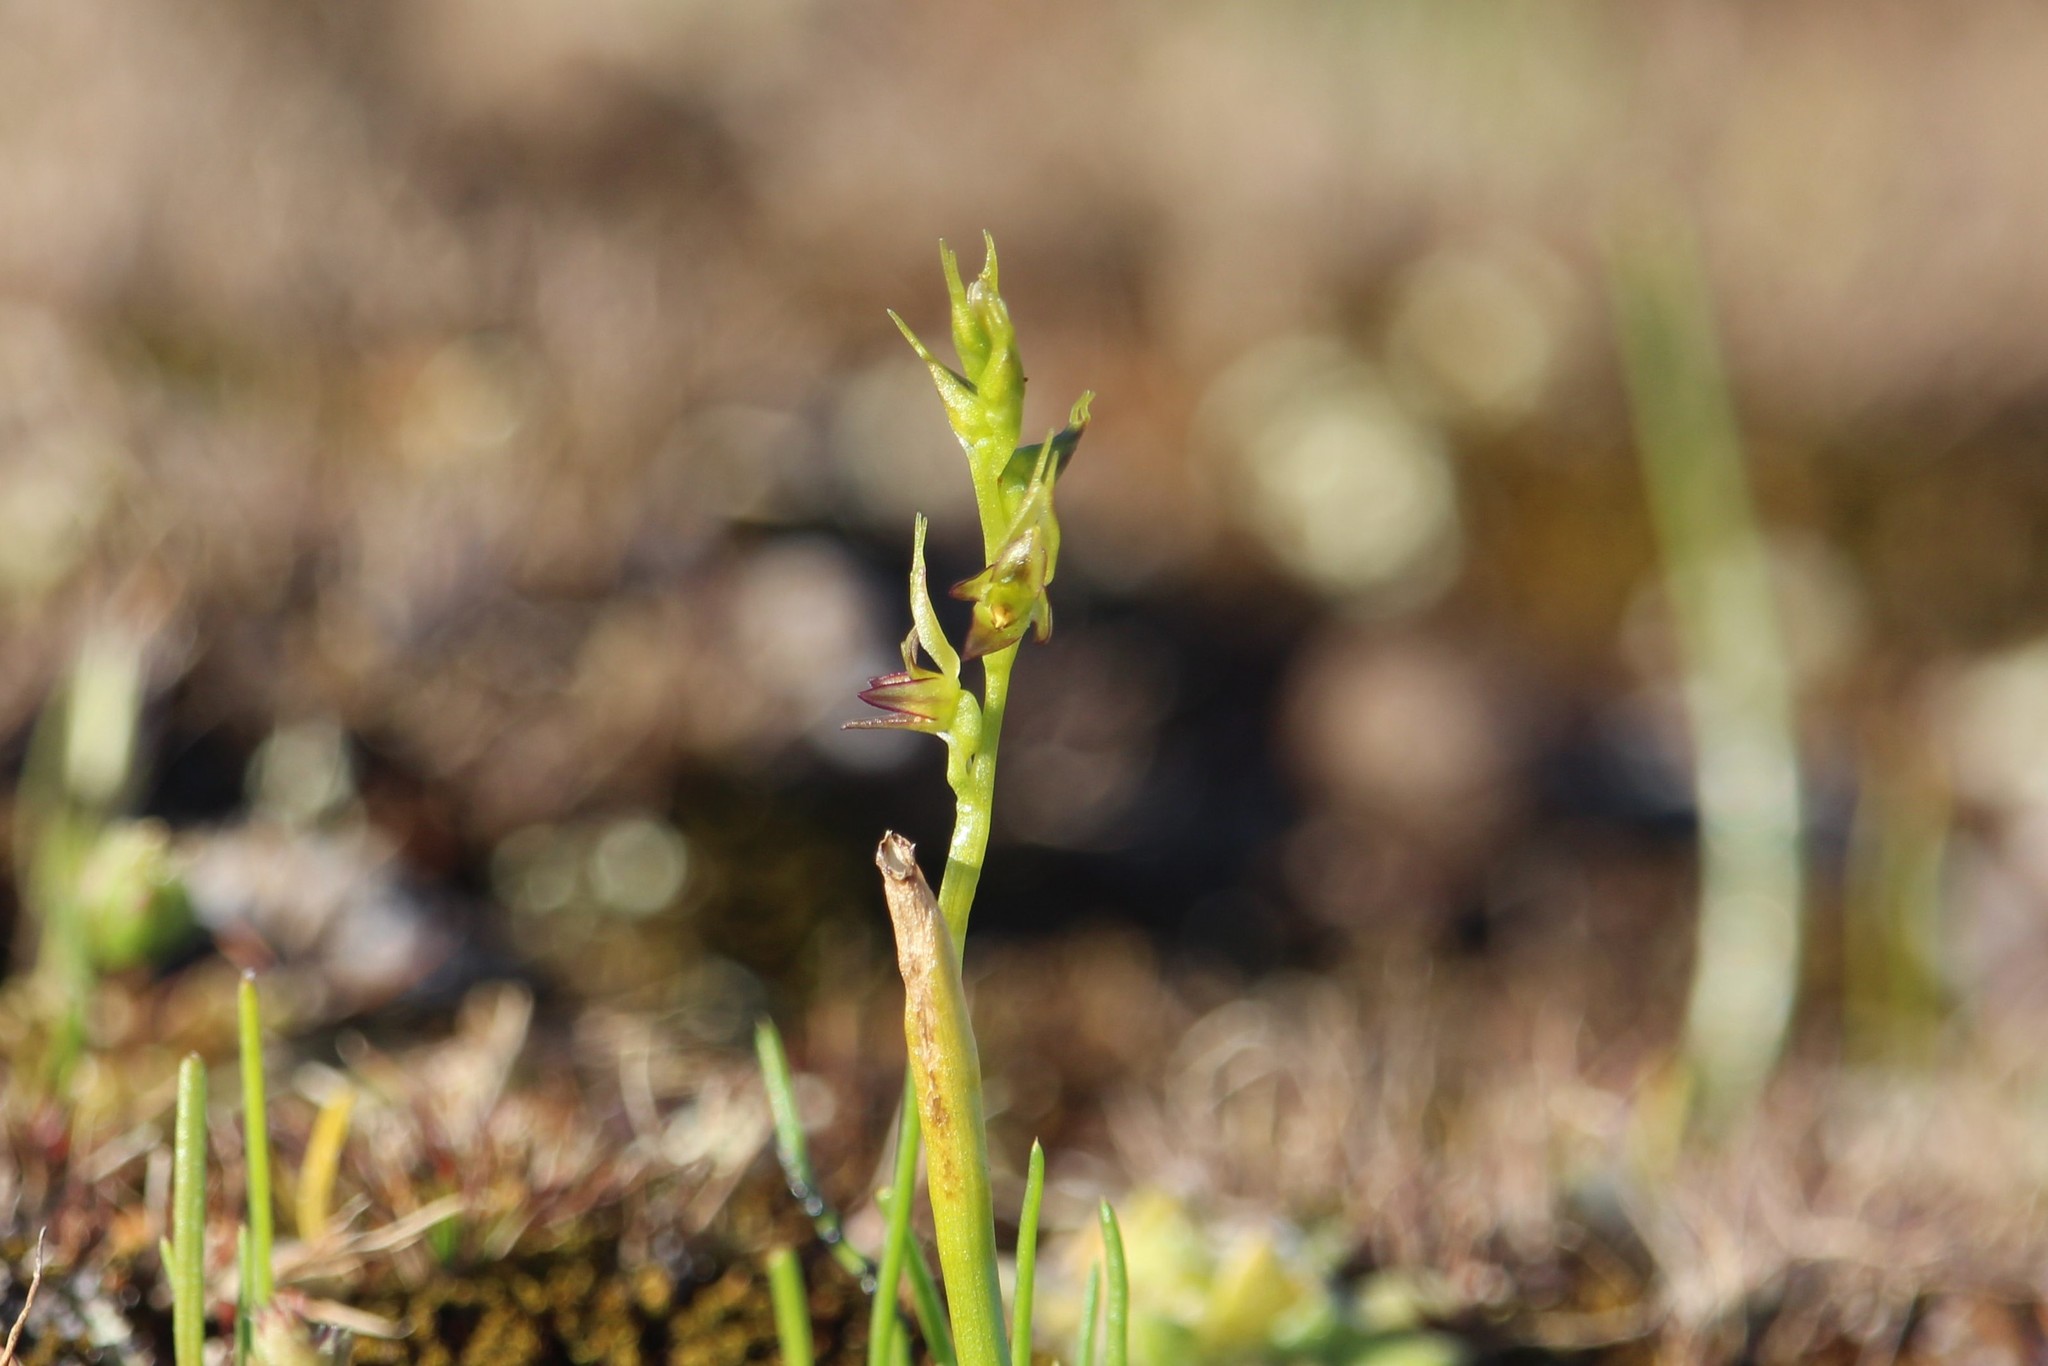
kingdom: Plantae
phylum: Tracheophyta
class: Liliopsida
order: Asparagales
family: Orchidaceae
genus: Prasophyllum
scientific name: Prasophyllum gracile
